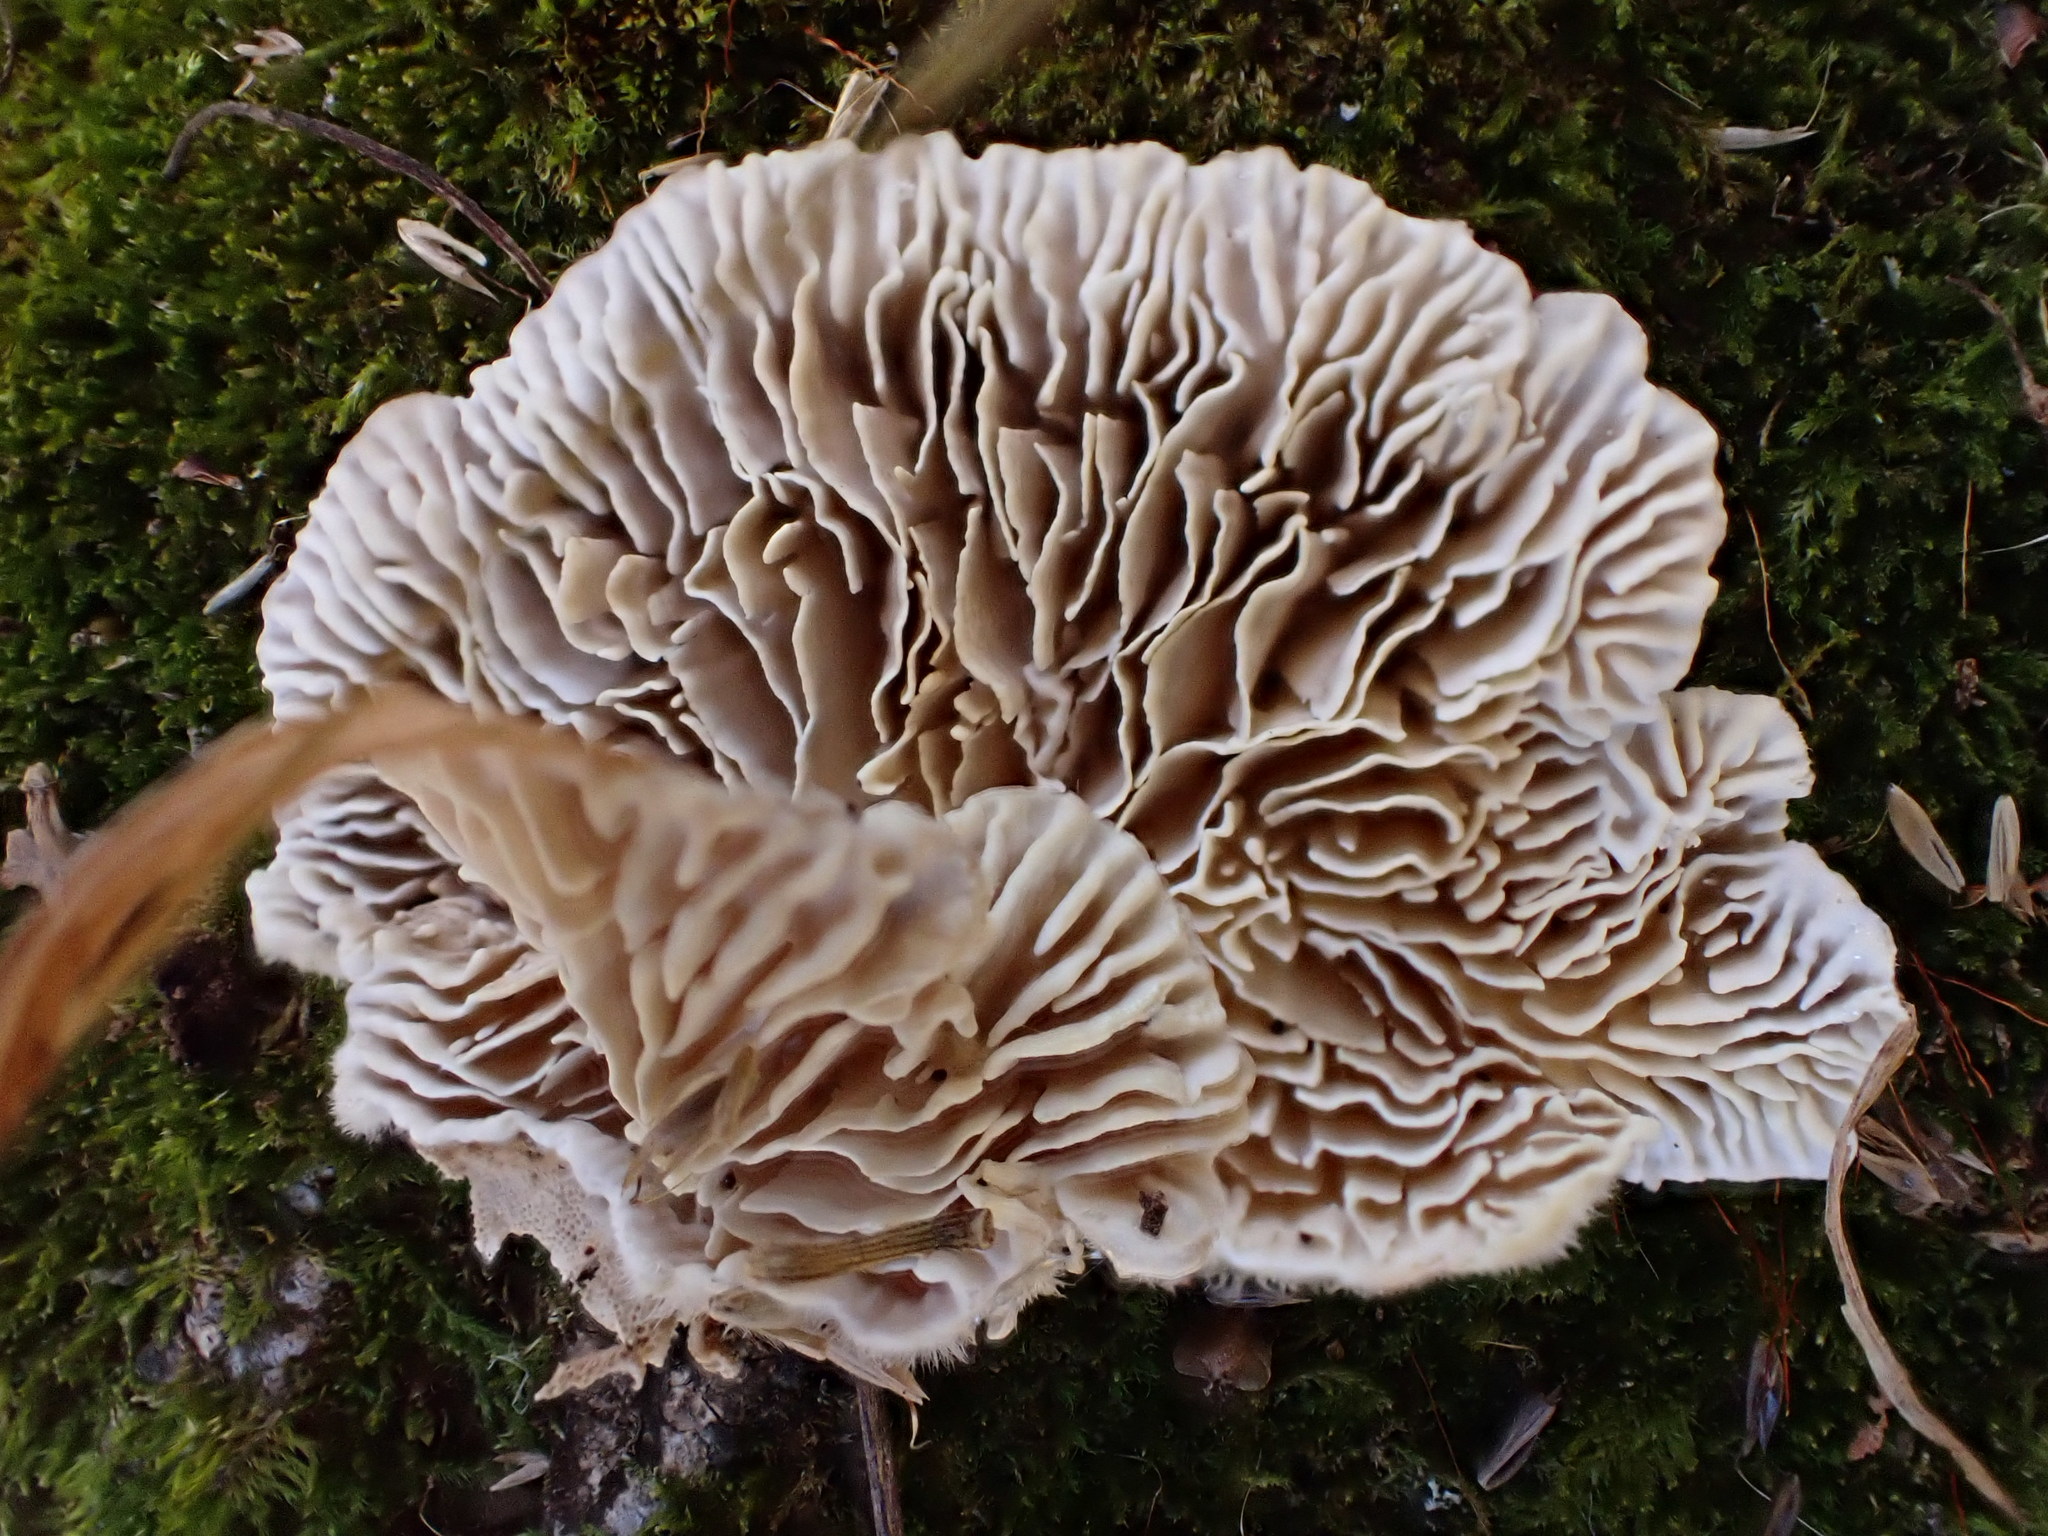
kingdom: Fungi
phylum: Basidiomycota
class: Agaricomycetes
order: Polyporales
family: Polyporaceae
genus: Lenzites
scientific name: Lenzites betulinus
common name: Birch mazegill
